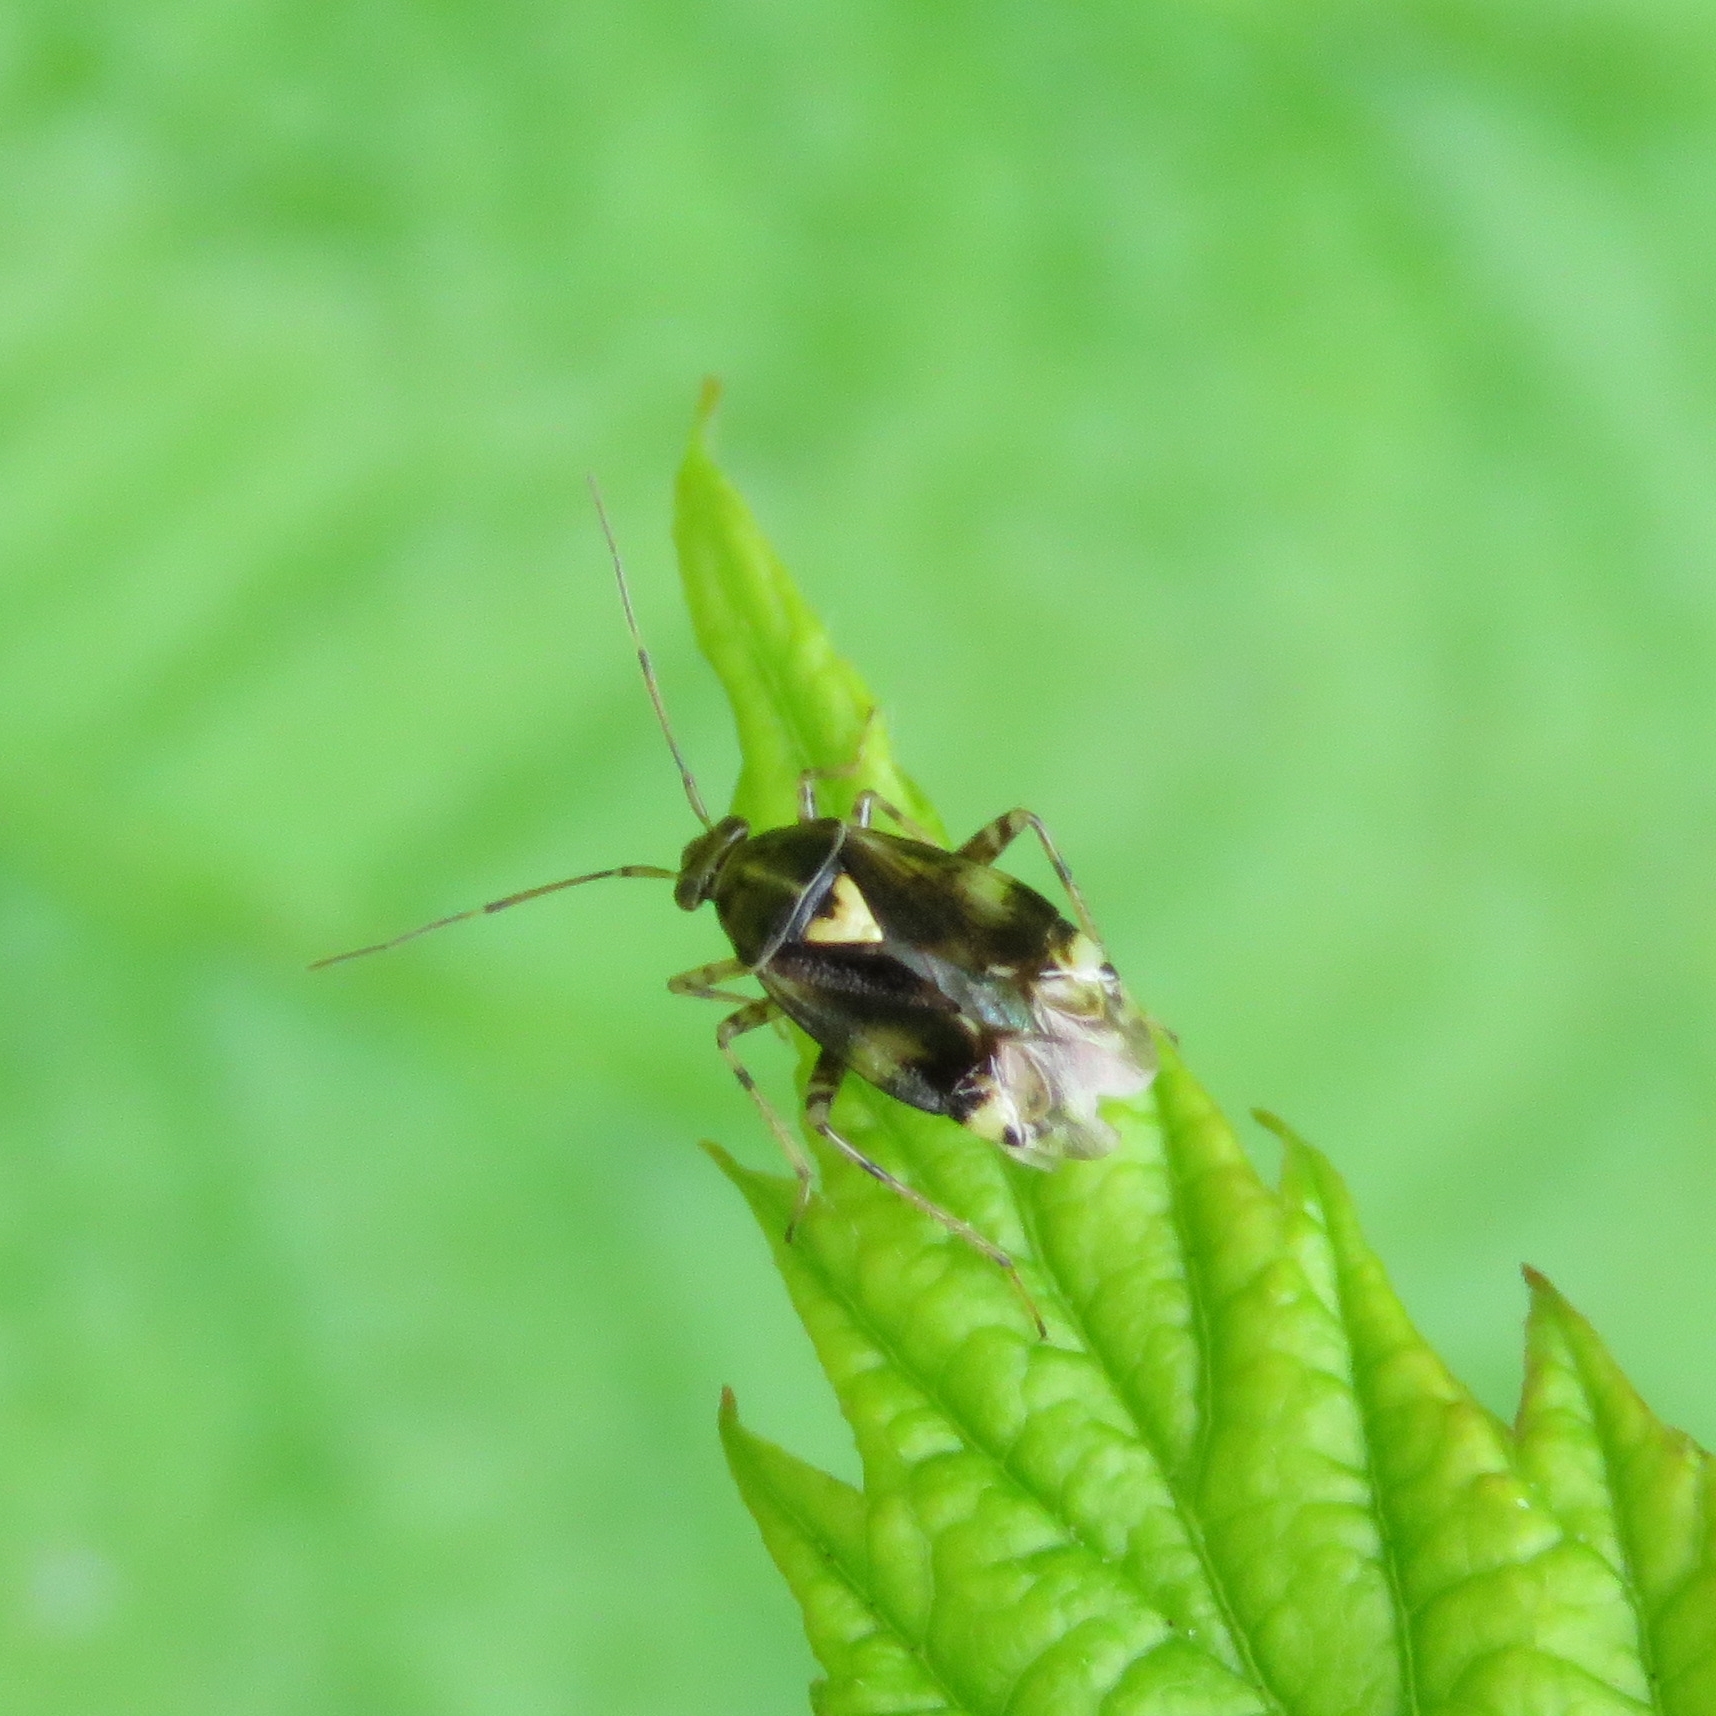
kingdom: Animalia
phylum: Arthropoda
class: Insecta
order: Hemiptera
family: Miridae
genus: Liocoris
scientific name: Liocoris tripustulatus
